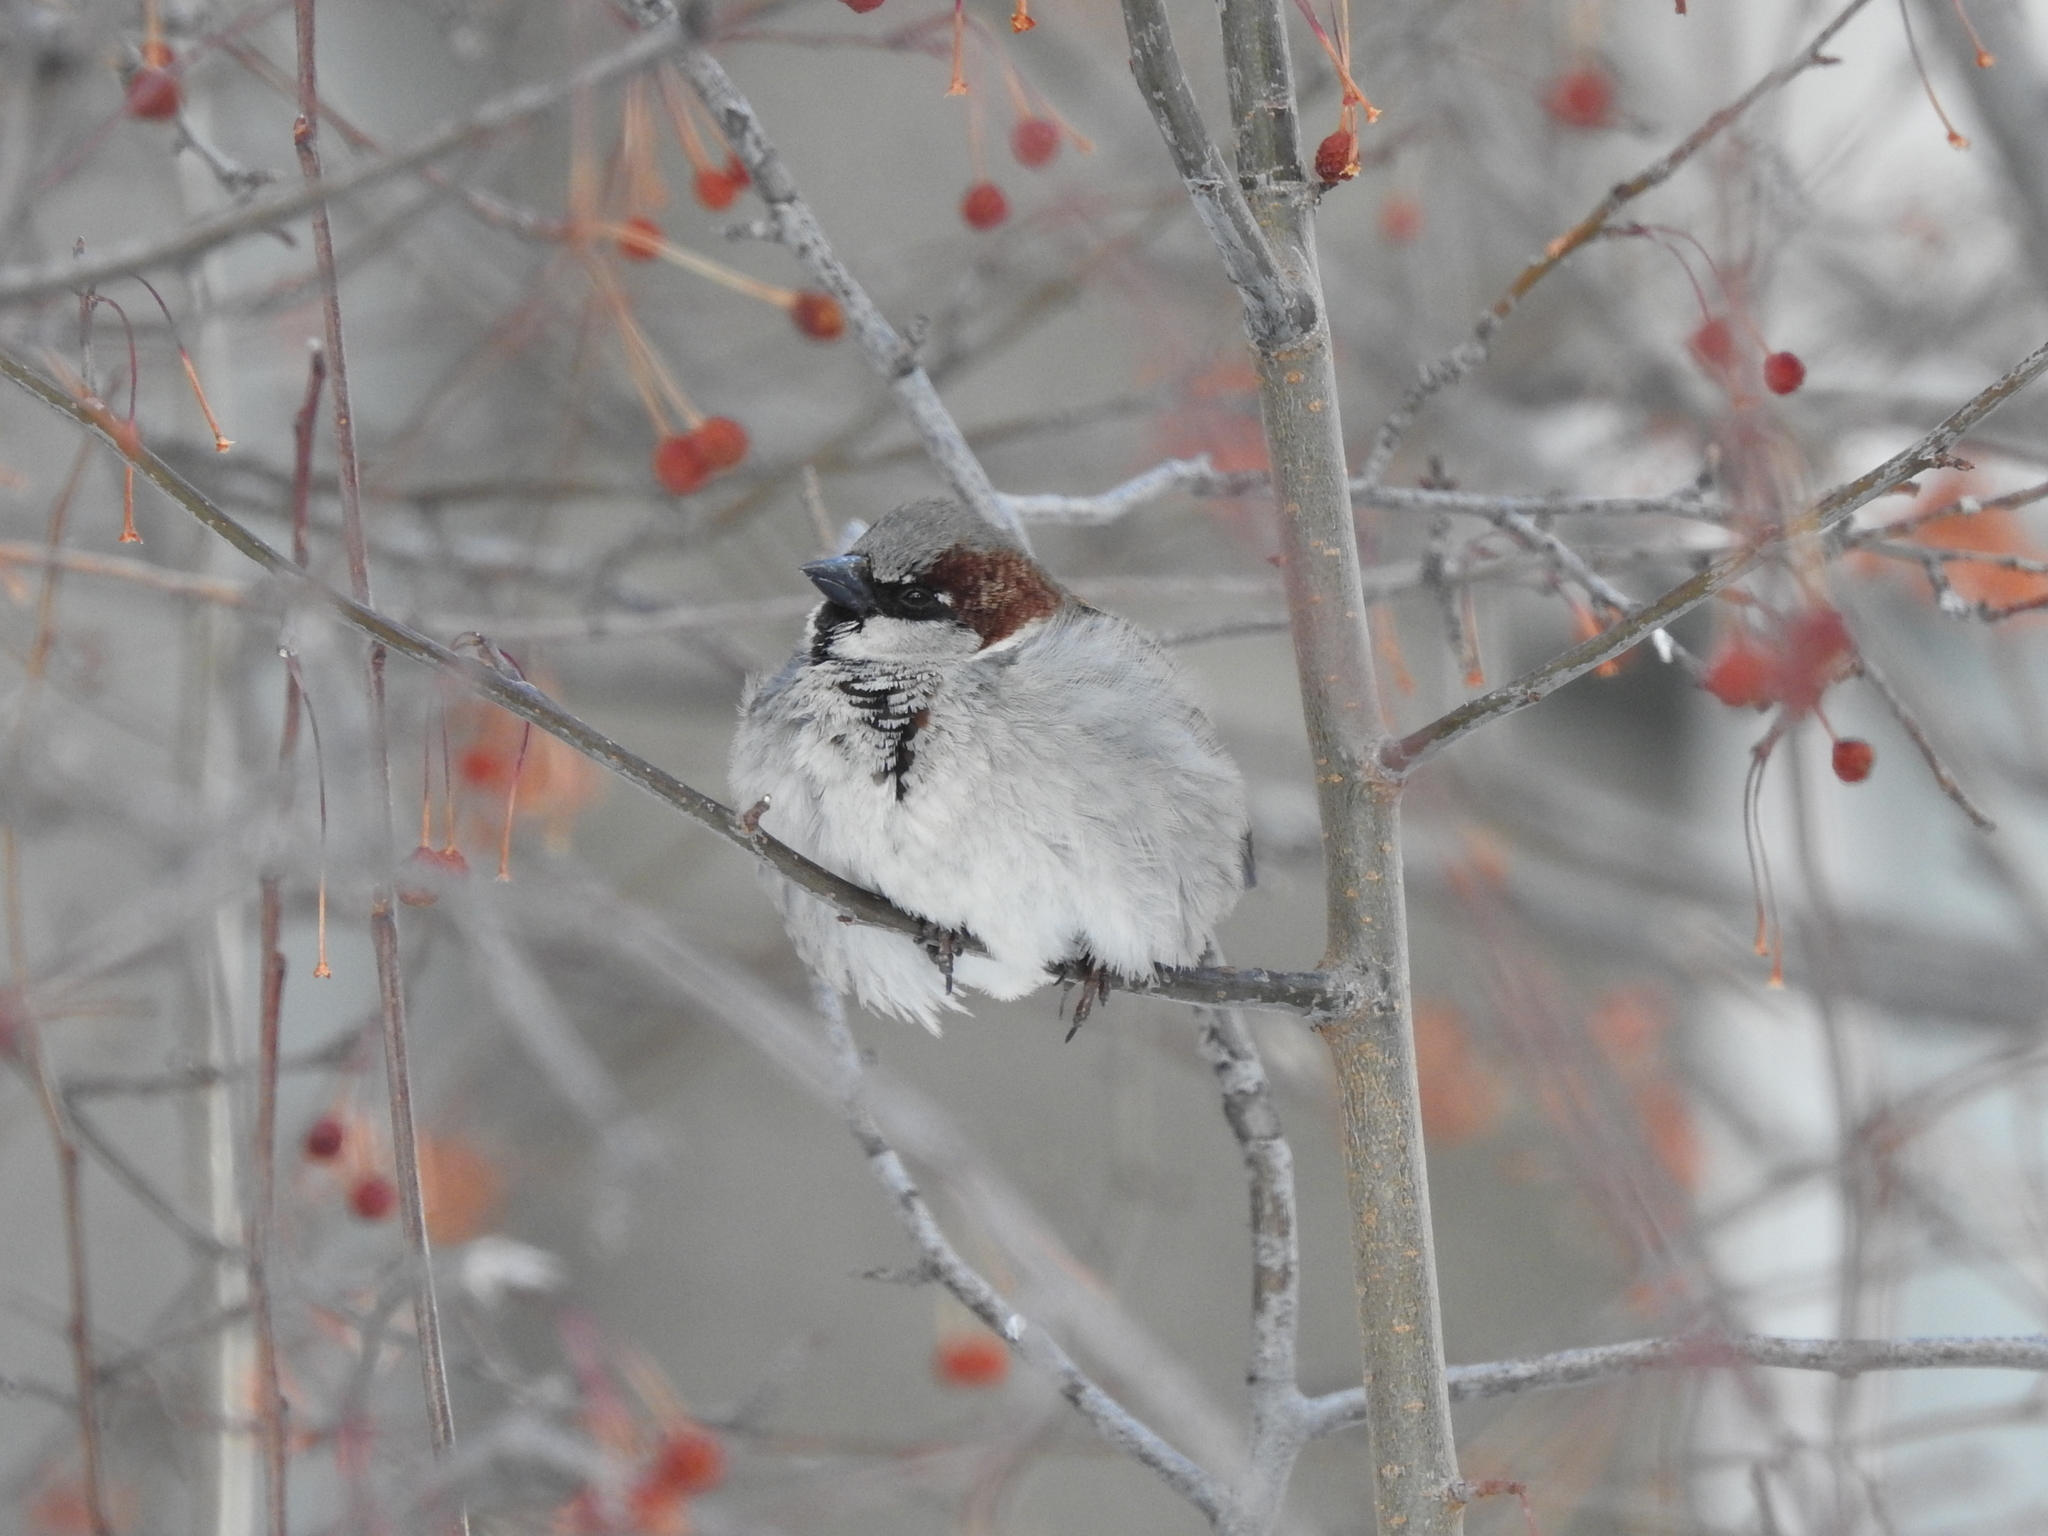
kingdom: Animalia
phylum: Chordata
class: Aves
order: Passeriformes
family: Passeridae
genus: Passer
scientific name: Passer domesticus
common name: House sparrow
